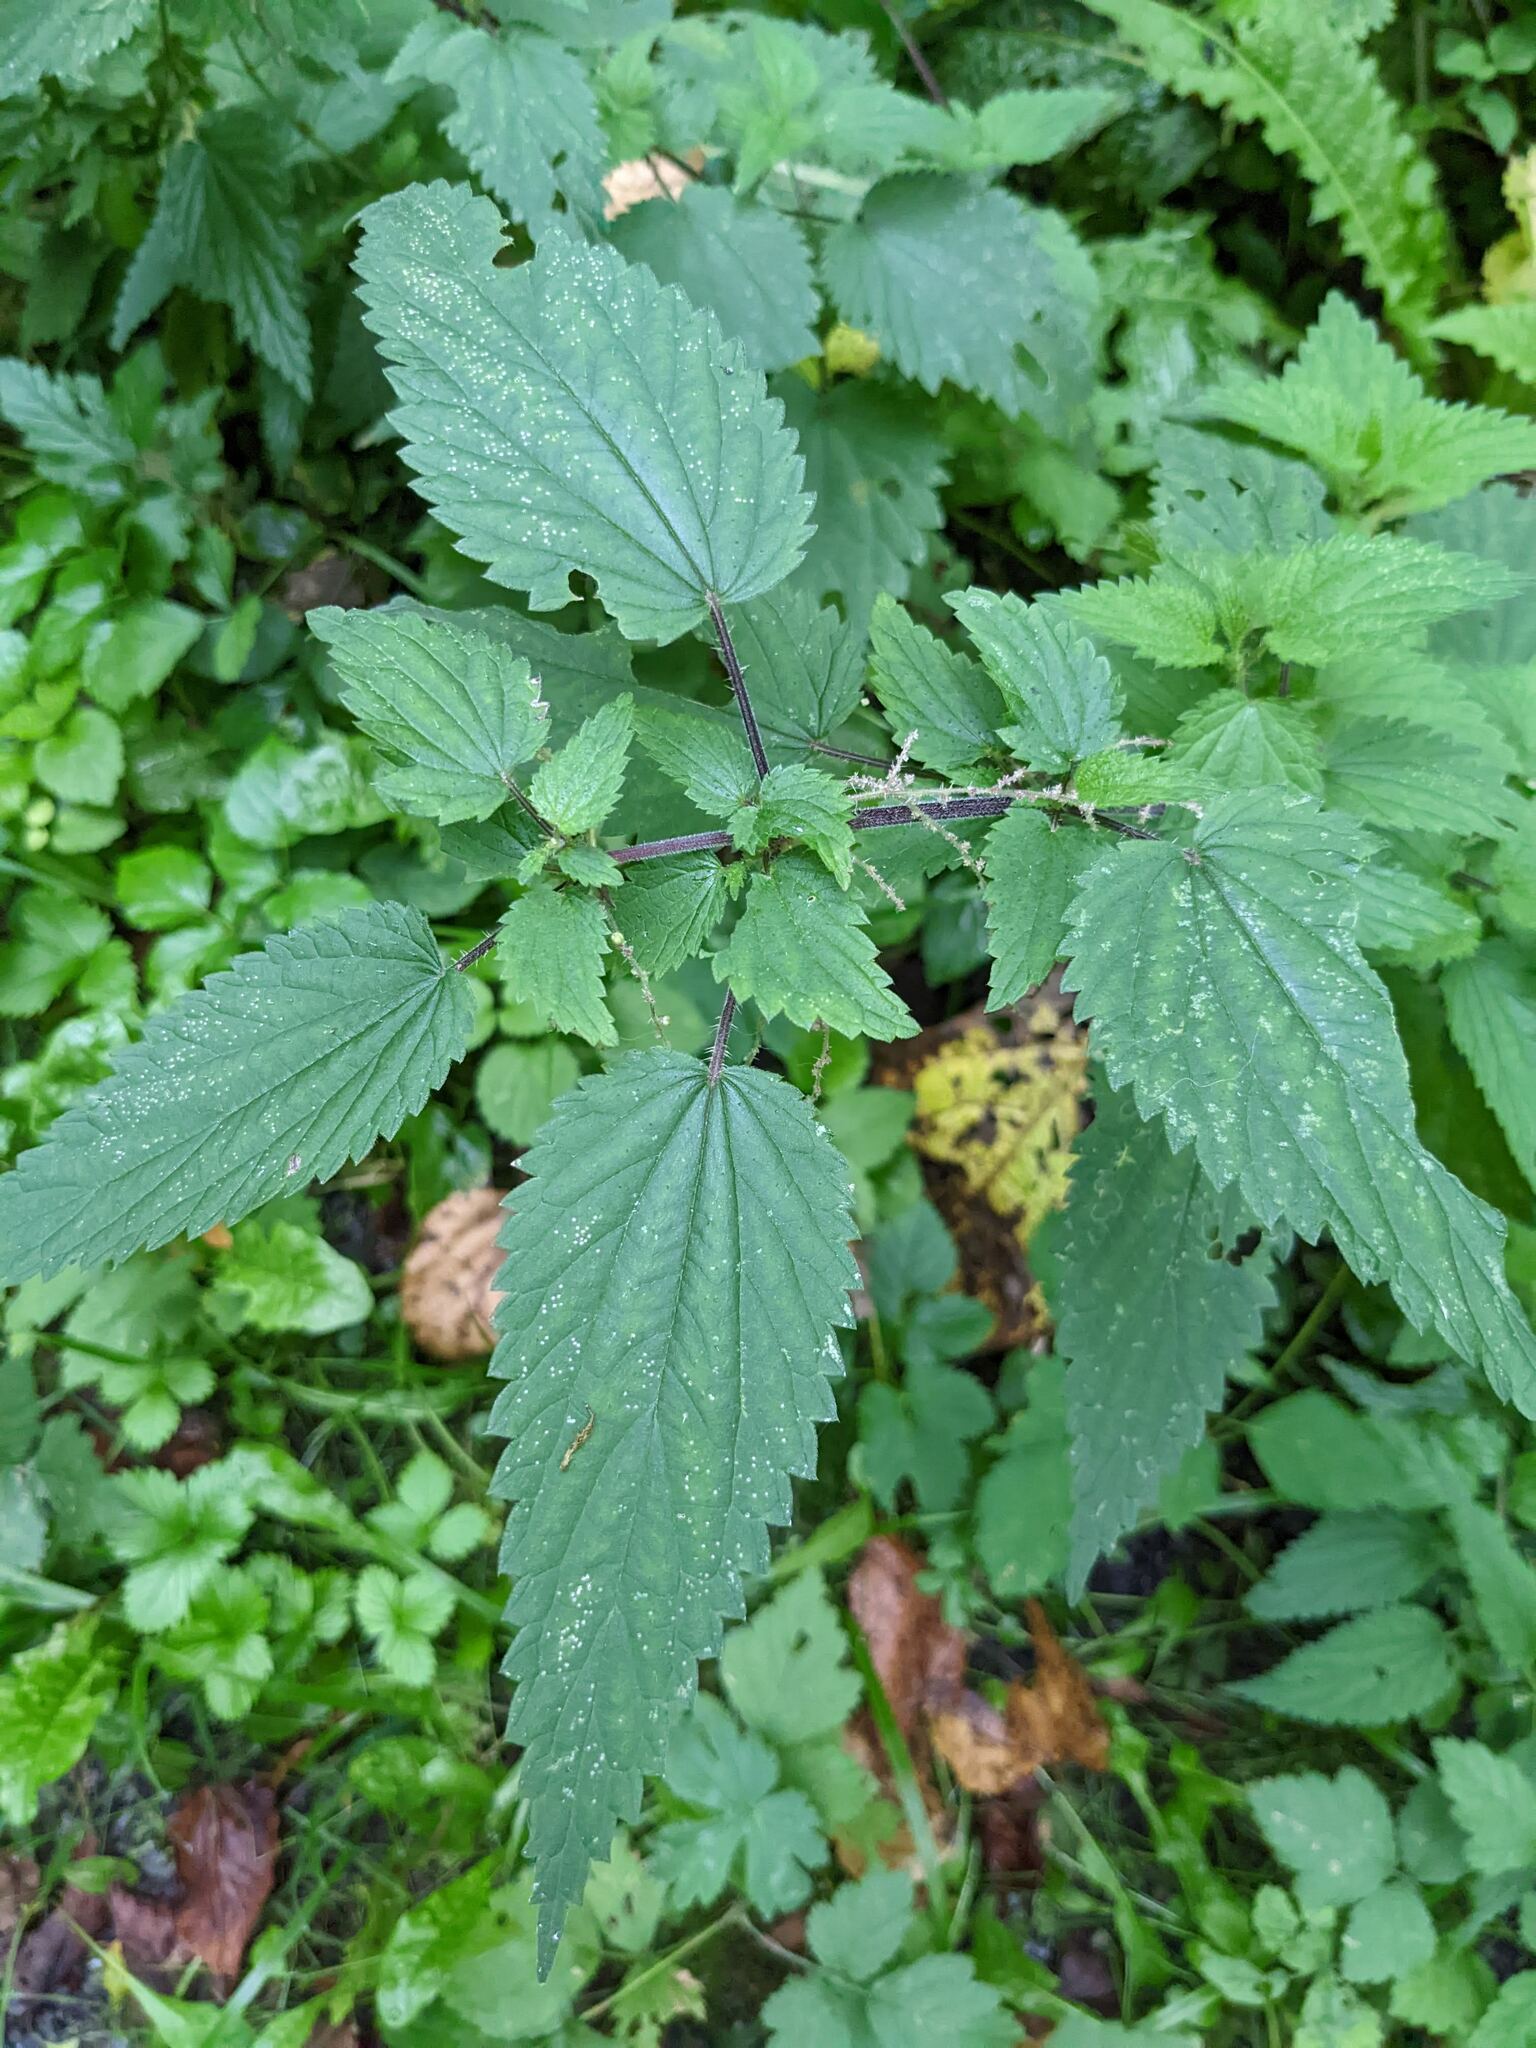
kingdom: Plantae
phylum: Tracheophyta
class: Magnoliopsida
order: Rosales
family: Urticaceae
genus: Urtica
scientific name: Urtica dioica
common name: Common nettle
